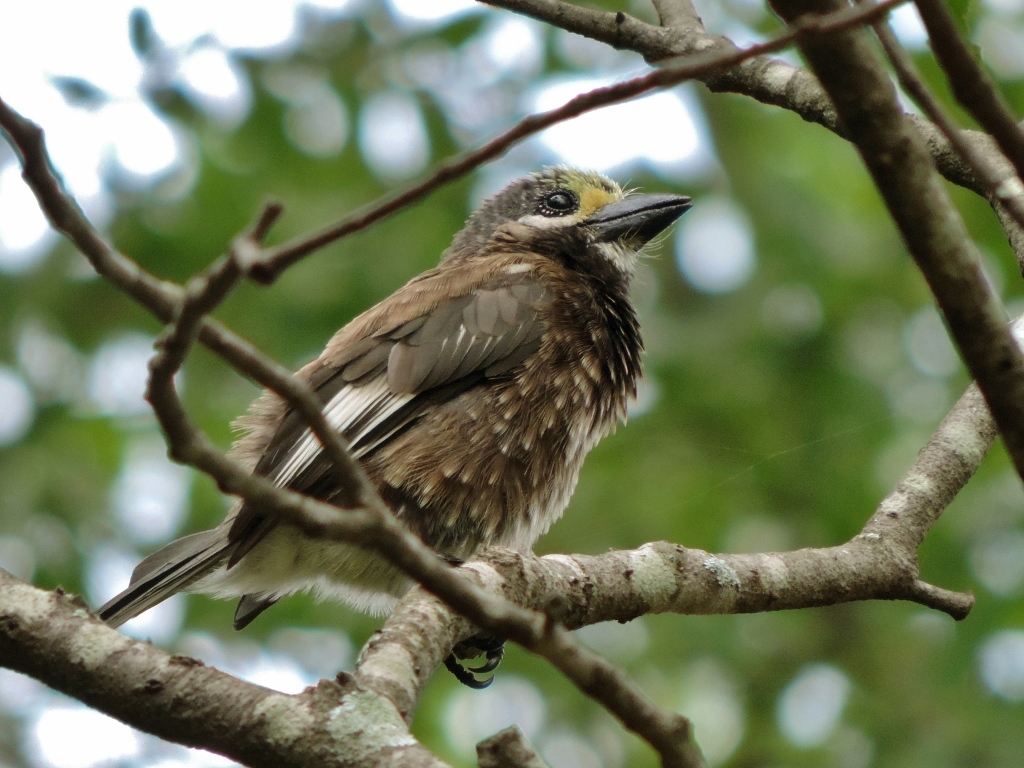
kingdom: Animalia
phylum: Chordata
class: Aves
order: Piciformes
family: Lybiidae
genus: Stactolaema
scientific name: Stactolaema whytii
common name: Whyte's barbet
